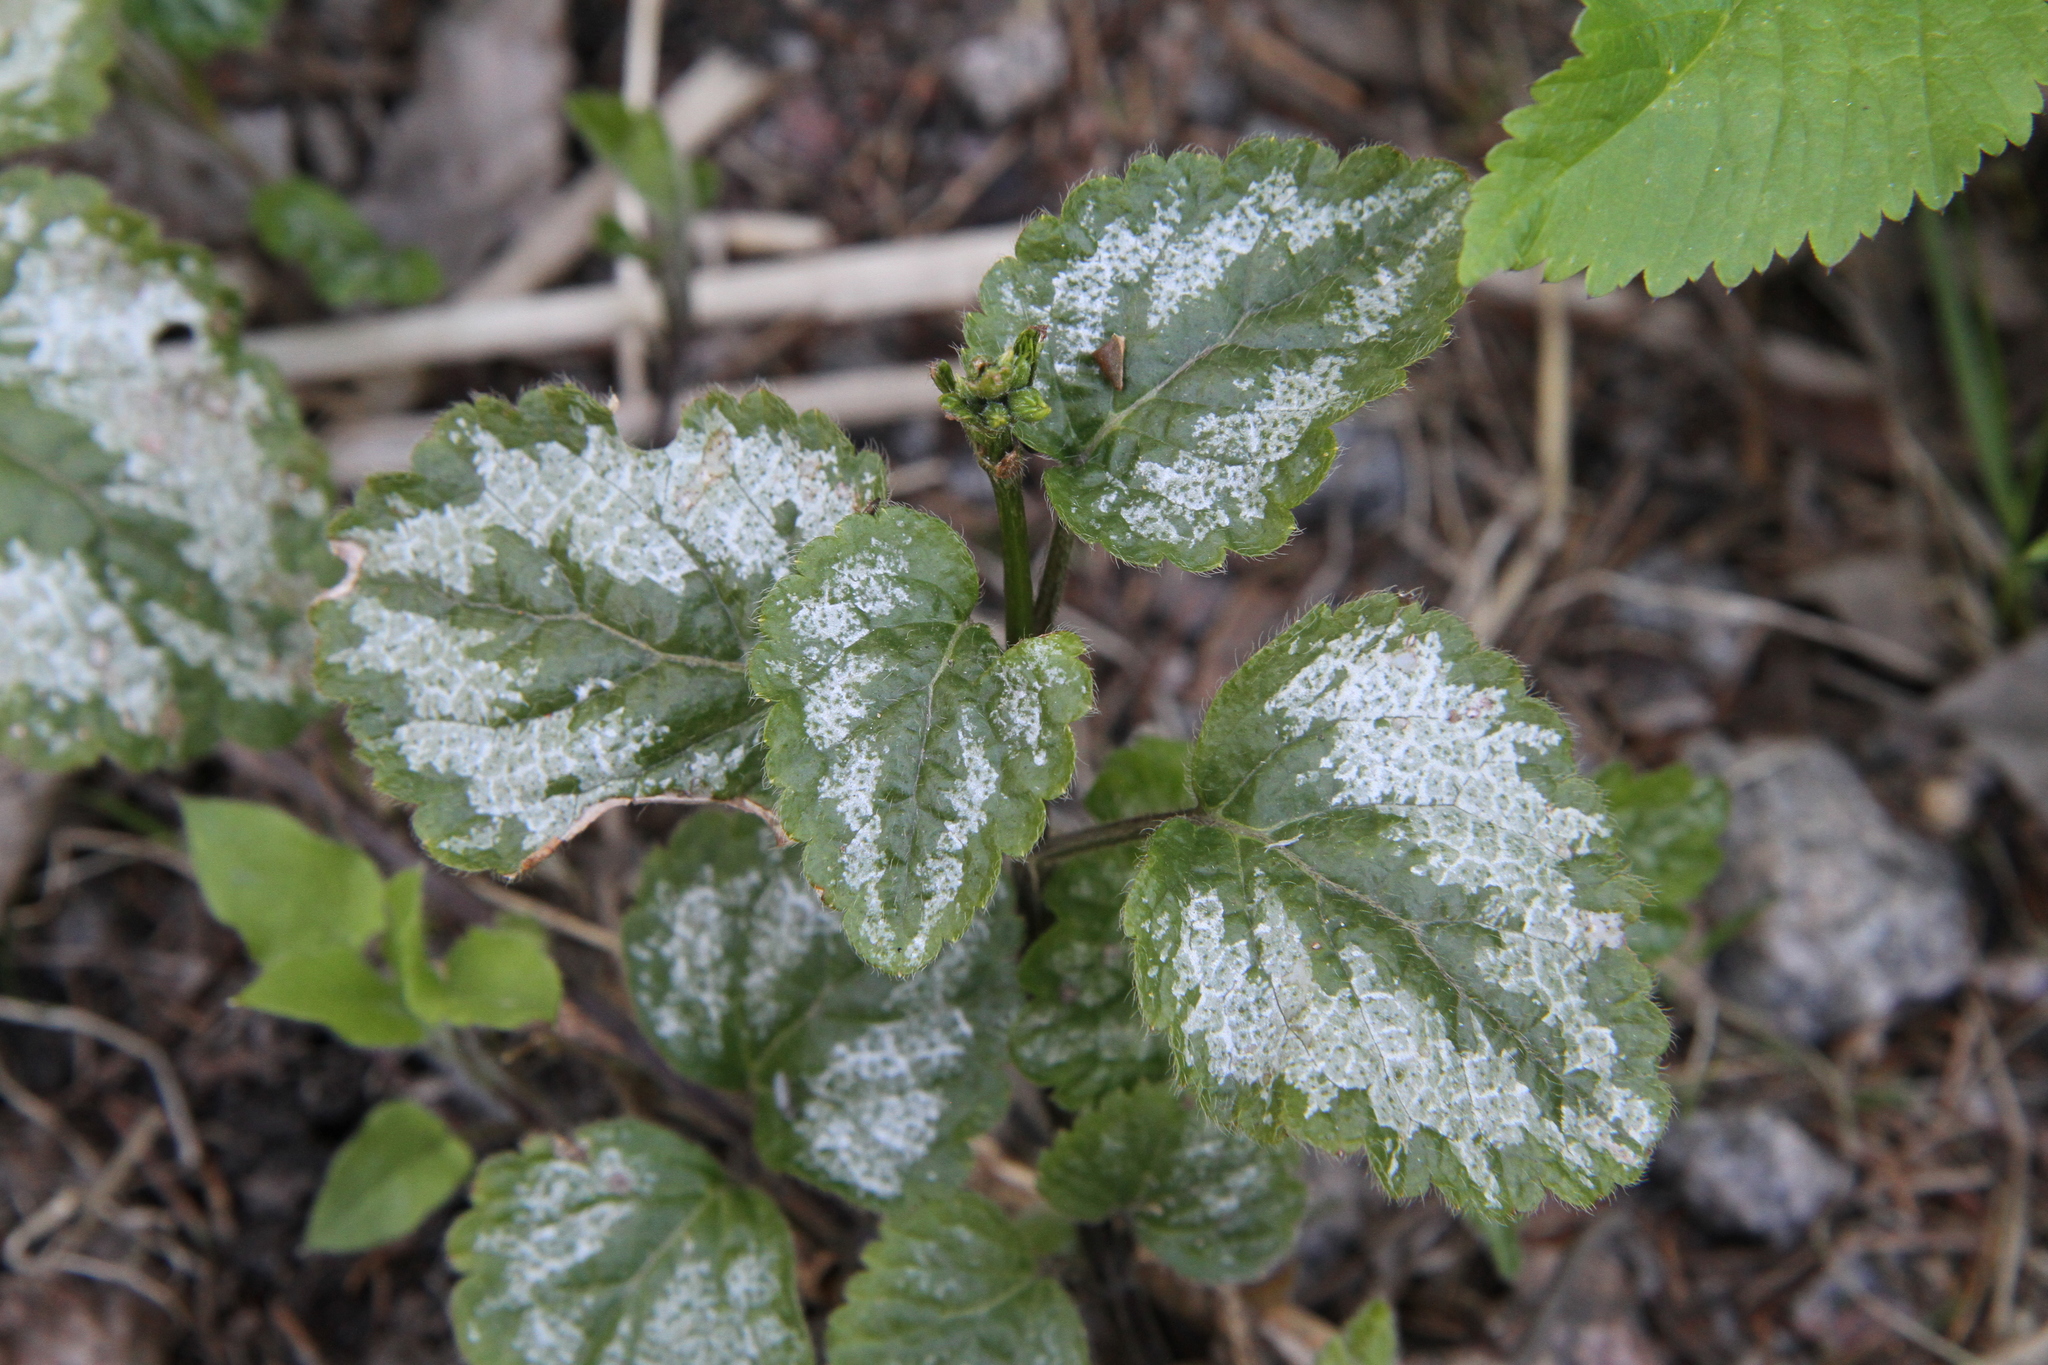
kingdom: Plantae
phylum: Tracheophyta
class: Magnoliopsida
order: Lamiales
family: Lamiaceae
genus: Lamium
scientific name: Lamium galeobdolon
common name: Yellow archangel
